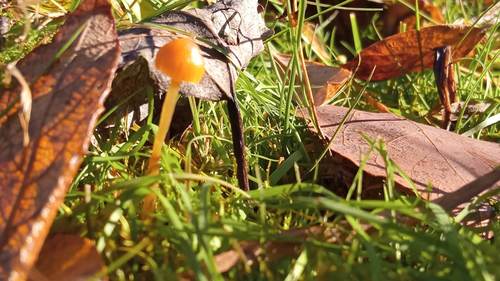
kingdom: Fungi
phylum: Basidiomycota
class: Agaricomycetes
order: Agaricales
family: Hymenogastraceae
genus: Galerina
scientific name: Galerina
